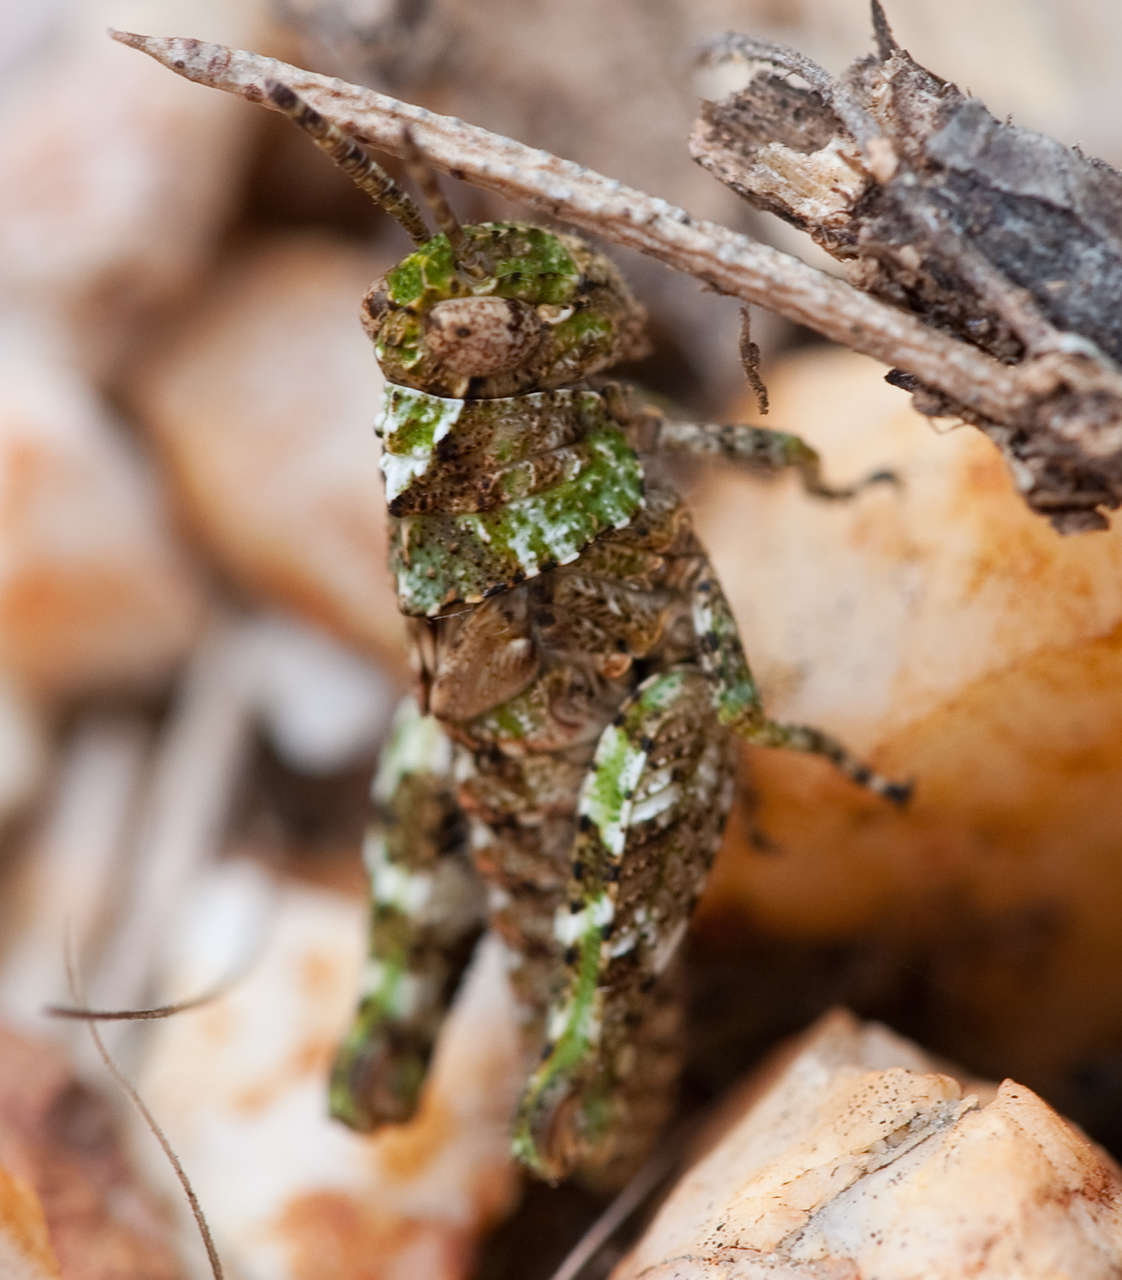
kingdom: Animalia
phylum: Arthropoda
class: Insecta
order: Orthoptera
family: Acrididae
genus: Cirphula
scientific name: Cirphula pyrrhocnemis
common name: Variable cirphula
